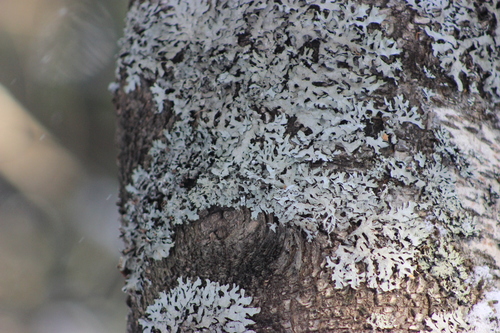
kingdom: Fungi
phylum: Ascomycota
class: Lecanoromycetes
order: Lecanorales
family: Parmeliaceae
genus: Parmelia
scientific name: Parmelia sulcata
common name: Netted shield lichen
